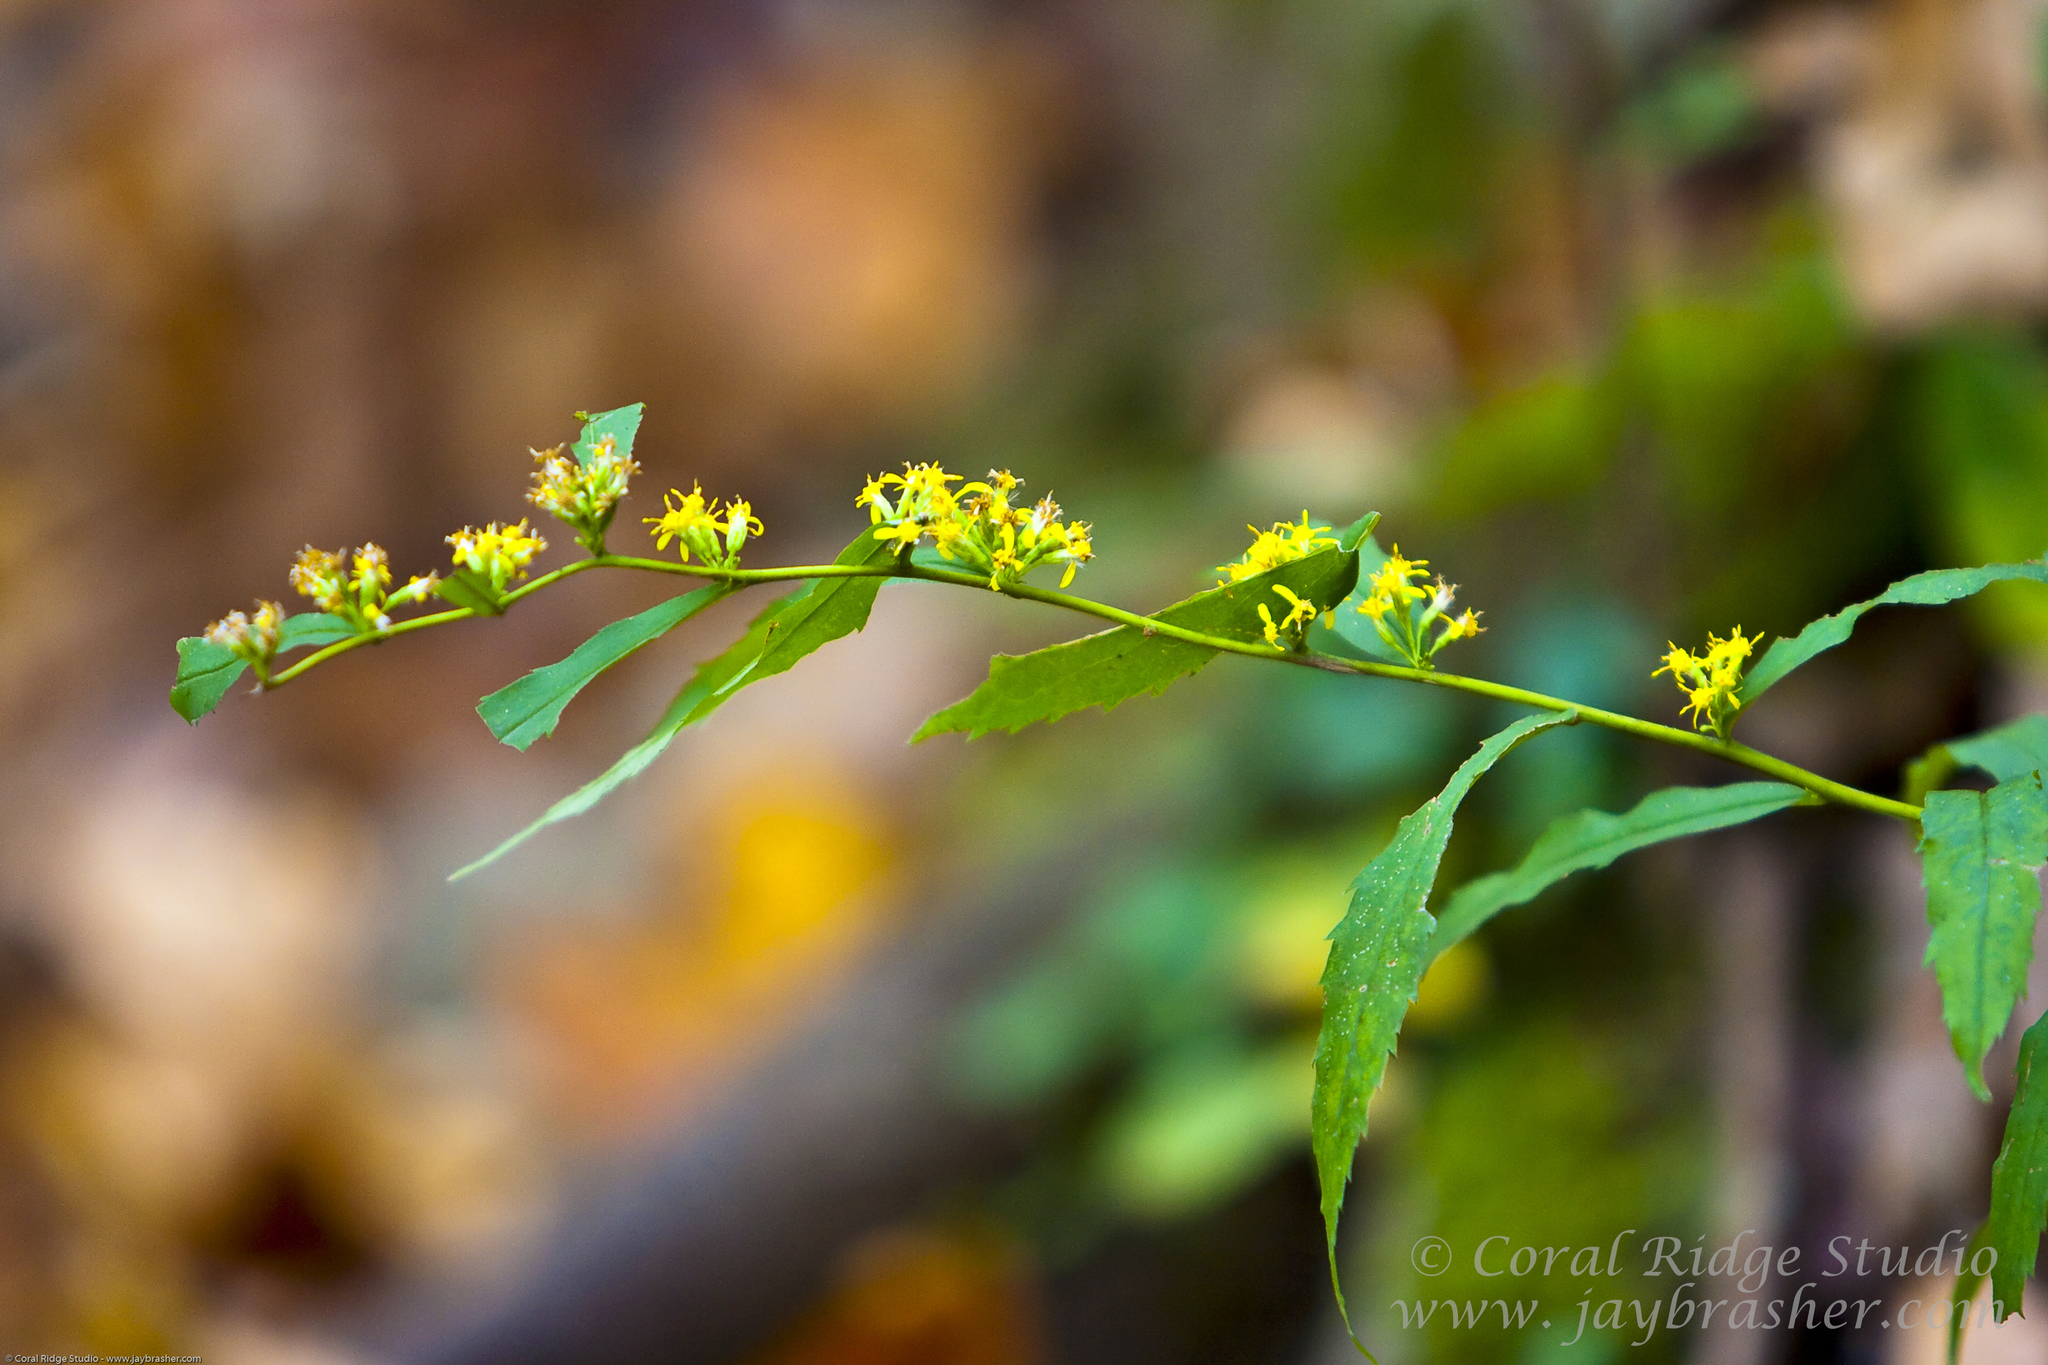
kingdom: Plantae
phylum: Tracheophyta
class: Magnoliopsida
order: Asterales
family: Asteraceae
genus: Solidago
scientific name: Solidago caesia
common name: Woodland goldenrod
